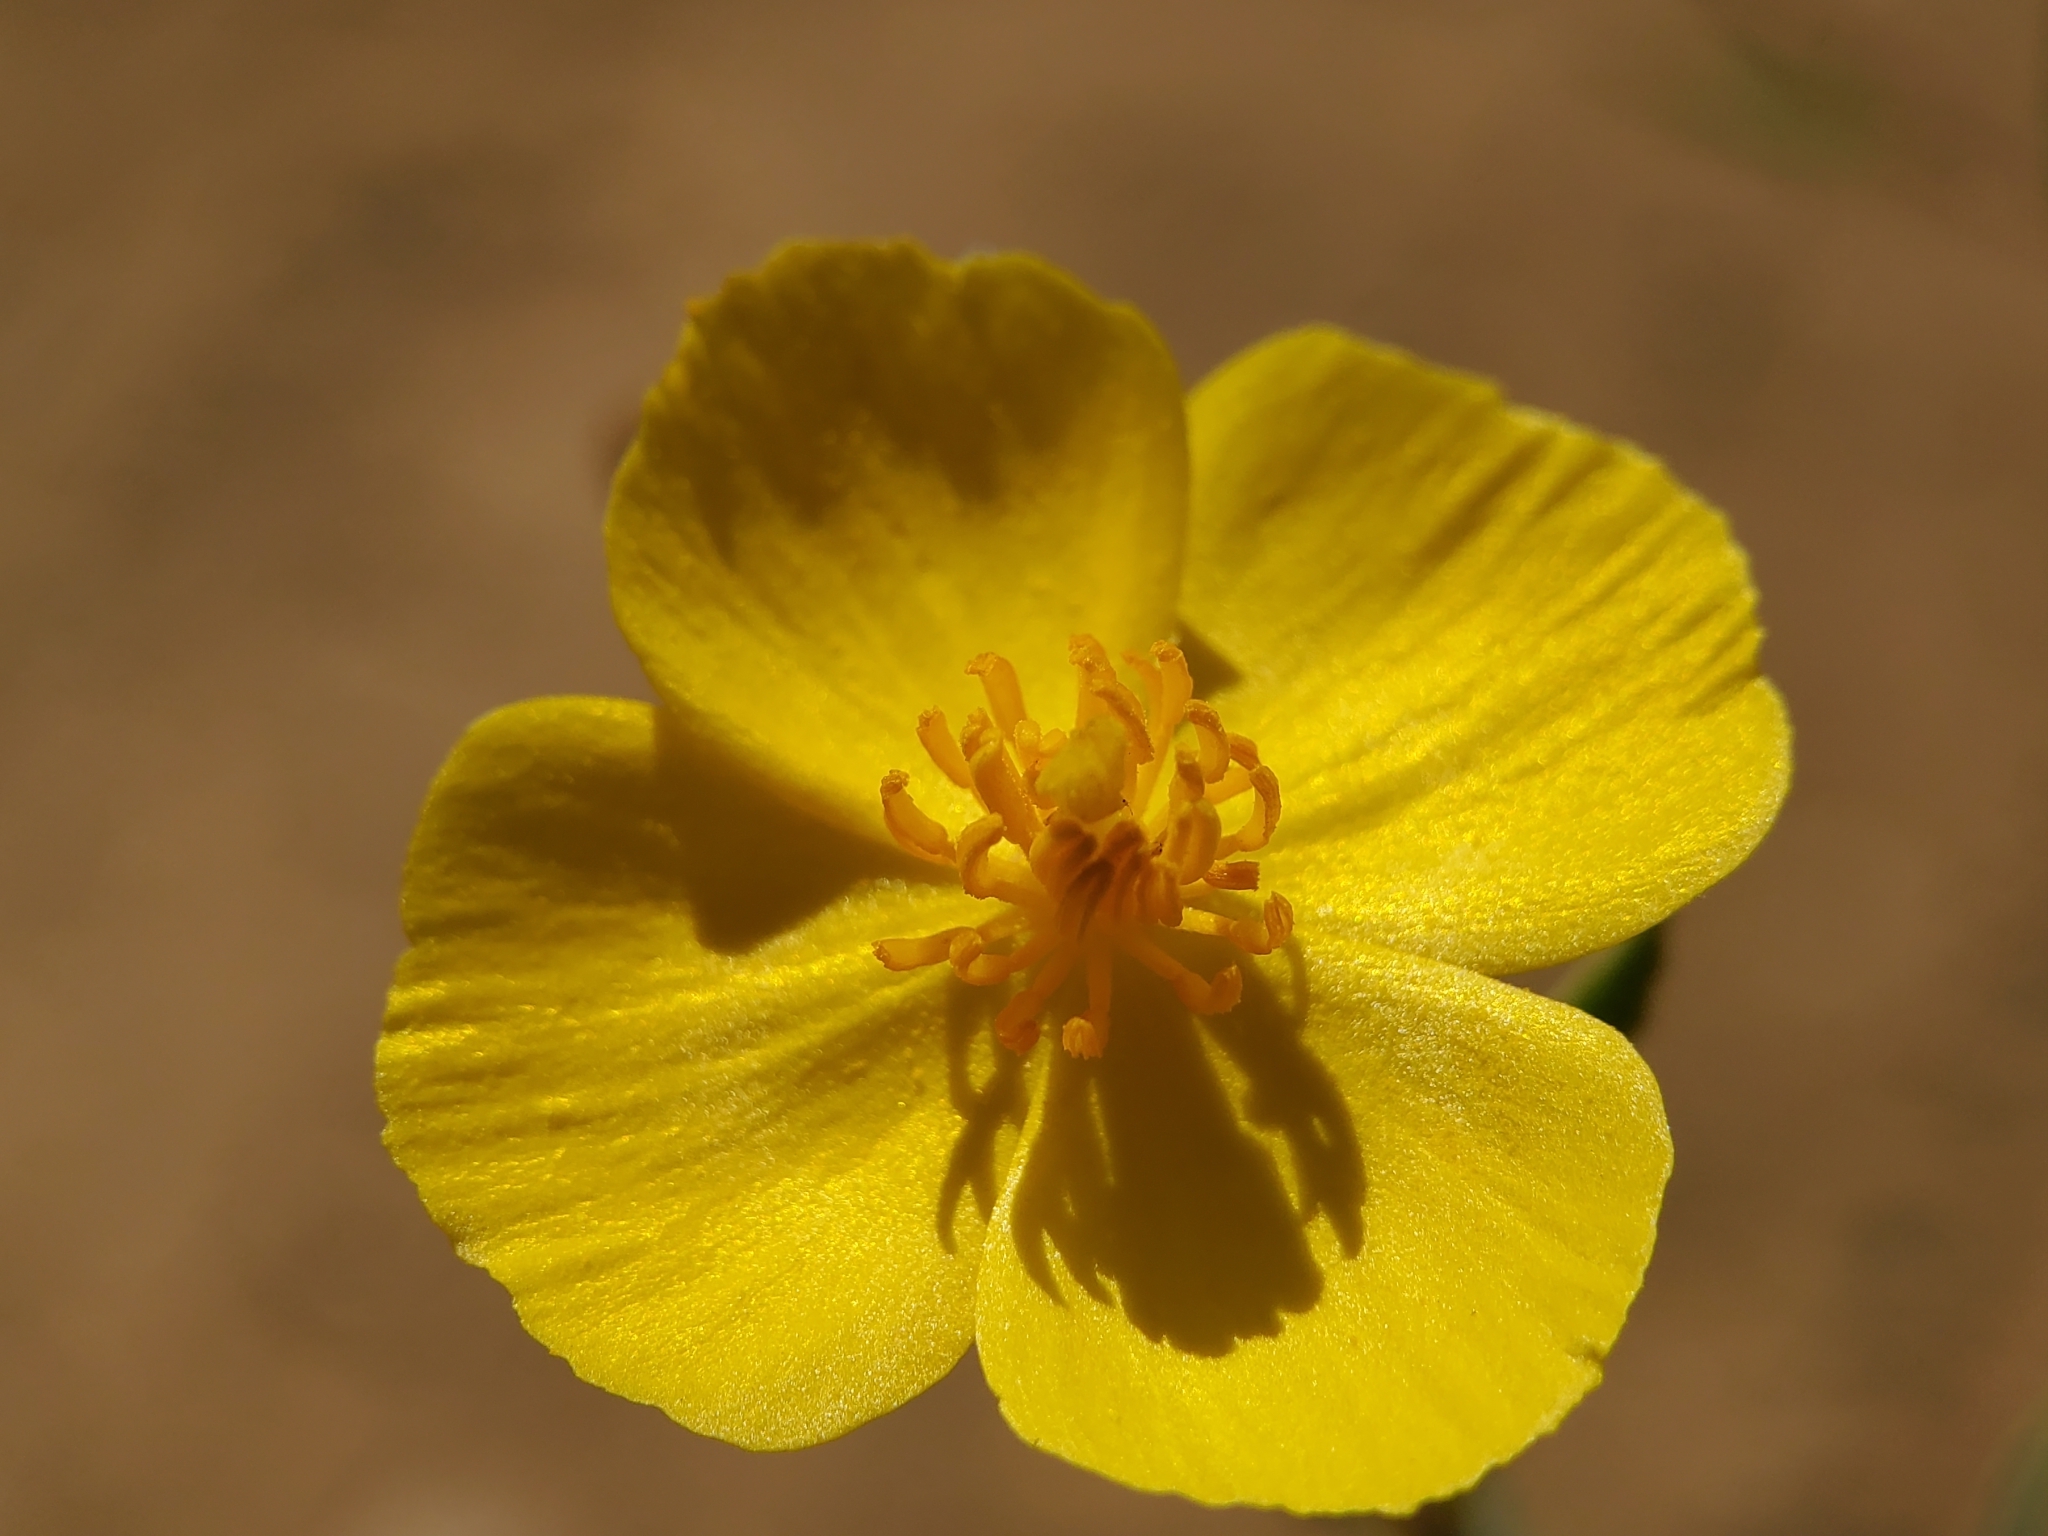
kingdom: Plantae
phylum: Tracheophyta
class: Magnoliopsida
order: Ranunculales
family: Papaveraceae
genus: Dendromecon
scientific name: Dendromecon rigida
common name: Tree poppy
